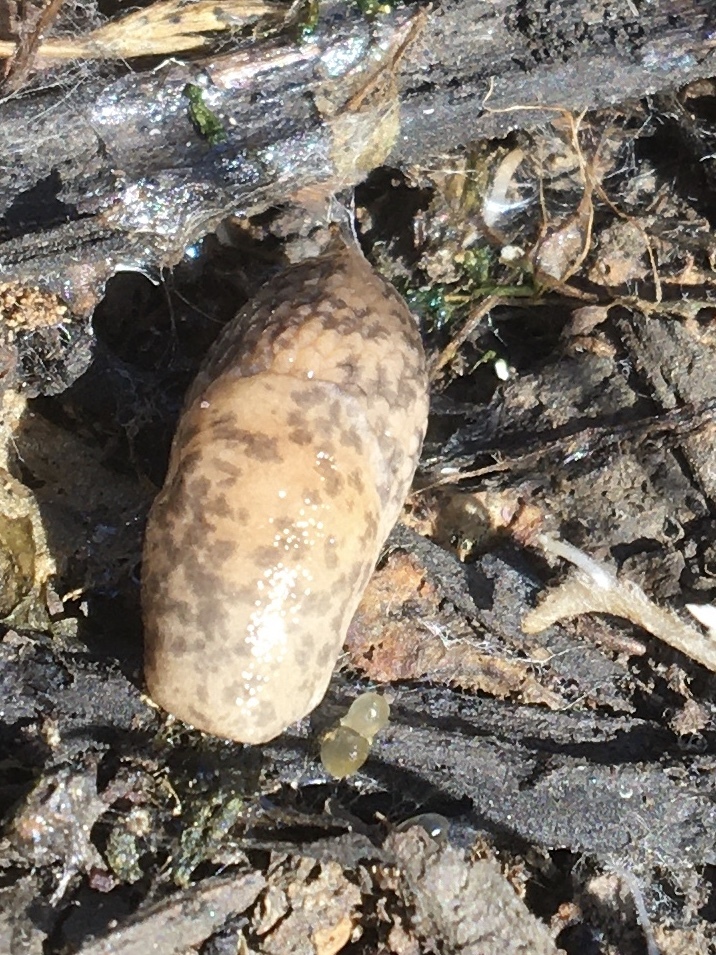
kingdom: Animalia
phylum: Mollusca
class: Gastropoda
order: Stylommatophora
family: Agriolimacidae
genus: Deroceras
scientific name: Deroceras reticulatum
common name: Gray field slug
